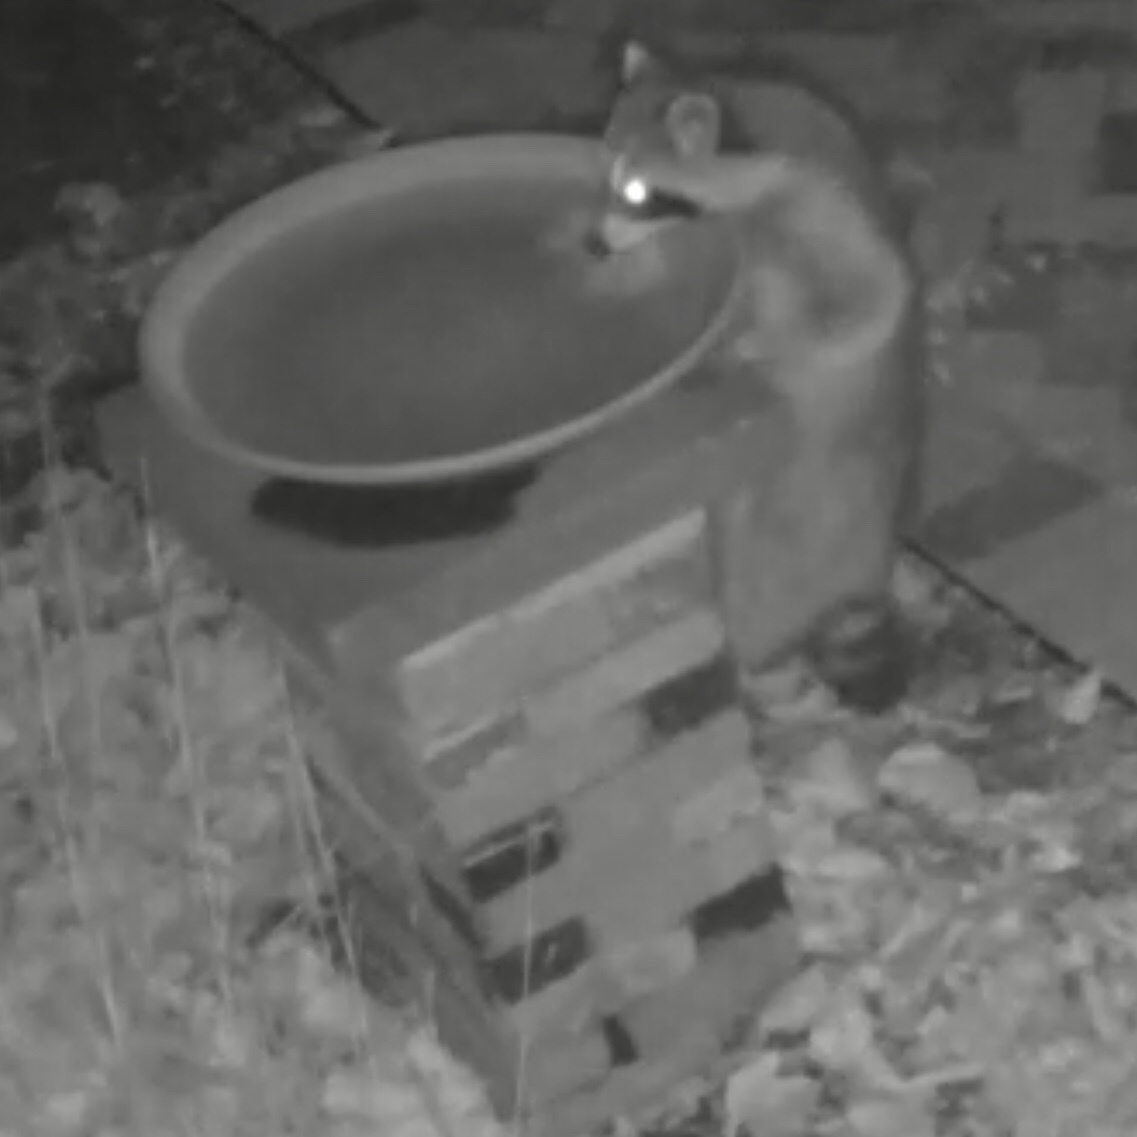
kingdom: Animalia
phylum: Chordata
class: Mammalia
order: Carnivora
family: Procyonidae
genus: Procyon
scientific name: Procyon lotor
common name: Raccoon
